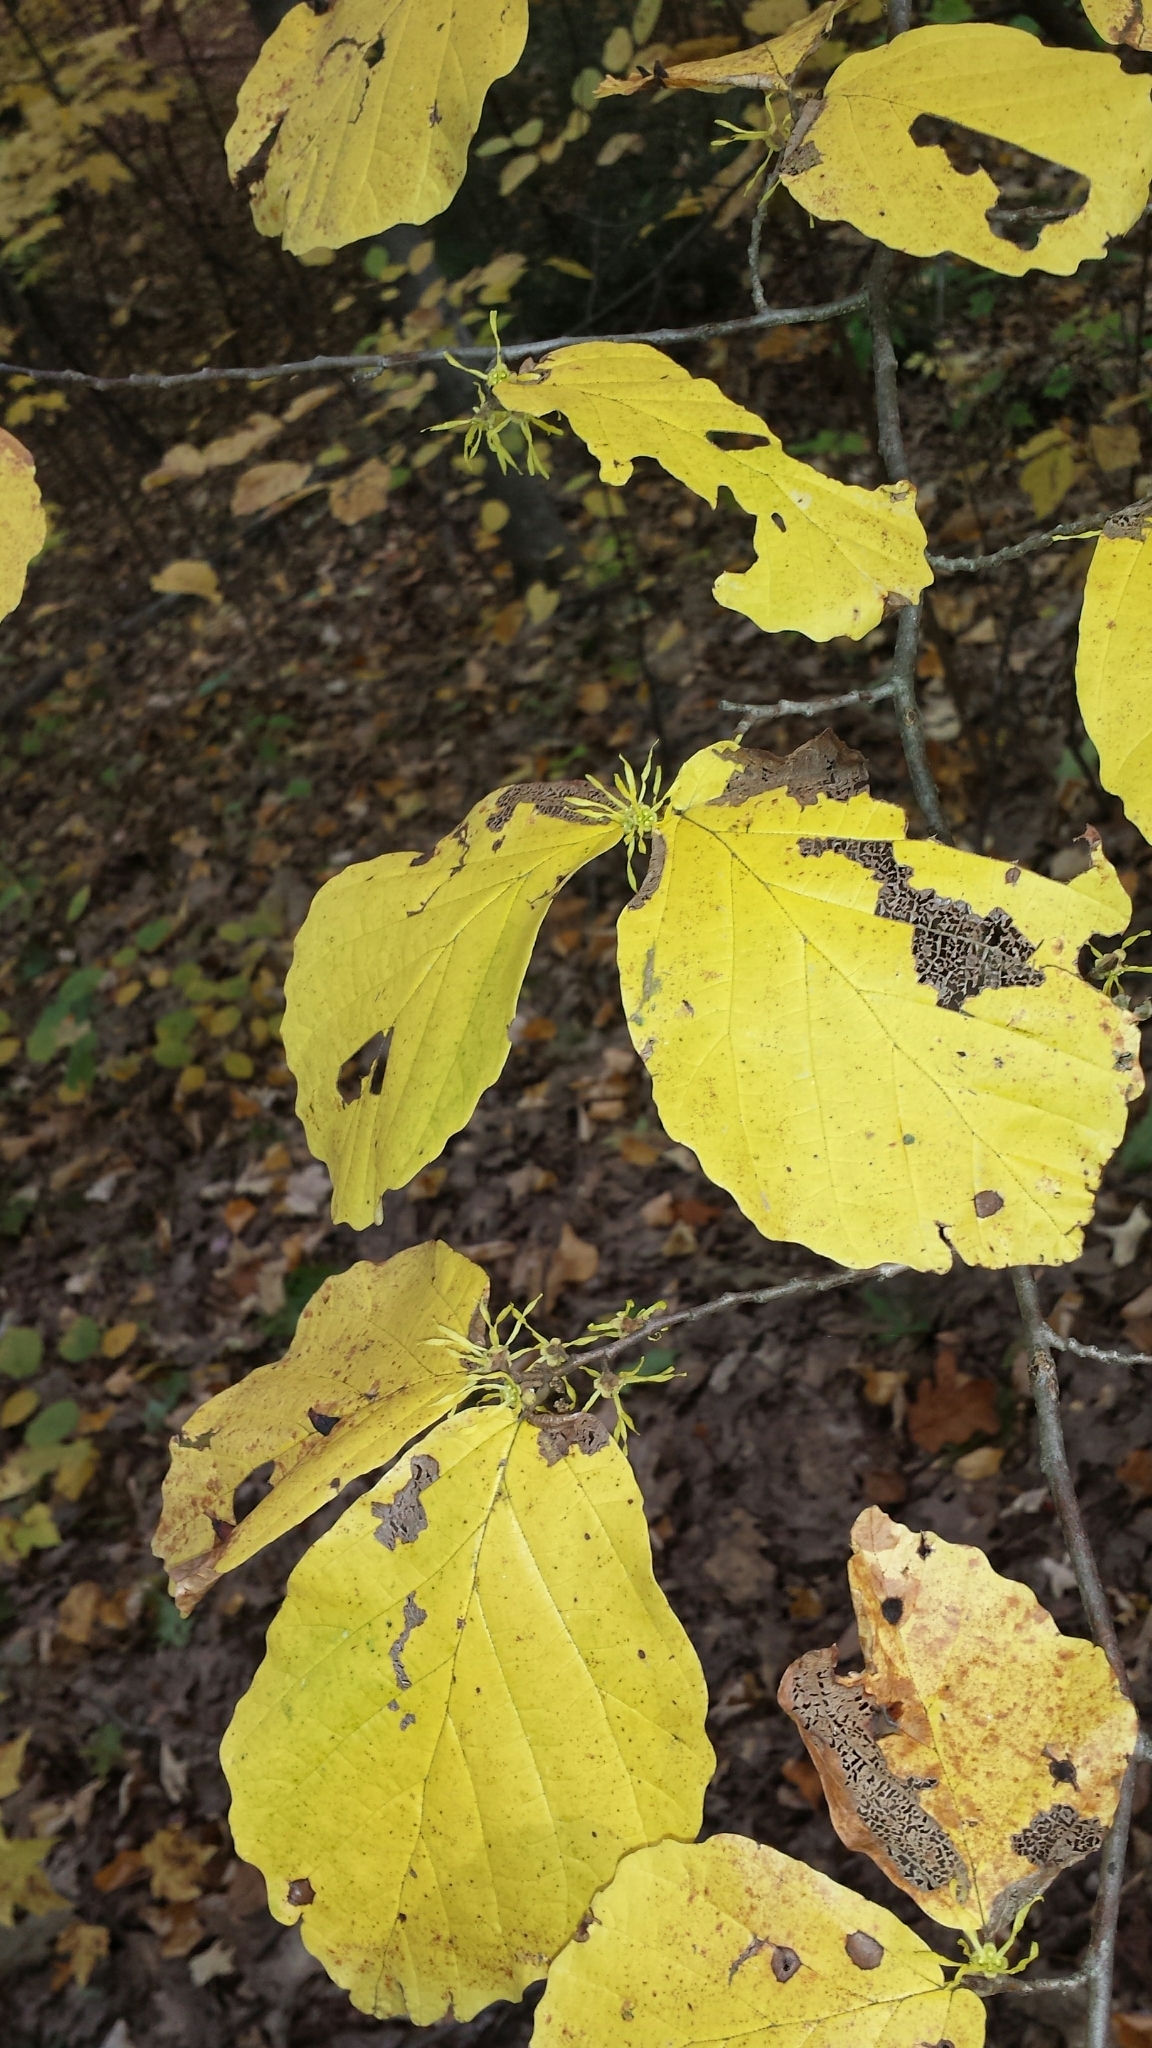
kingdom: Plantae
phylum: Tracheophyta
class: Magnoliopsida
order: Saxifragales
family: Hamamelidaceae
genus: Hamamelis
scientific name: Hamamelis virginiana
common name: Witch-hazel
